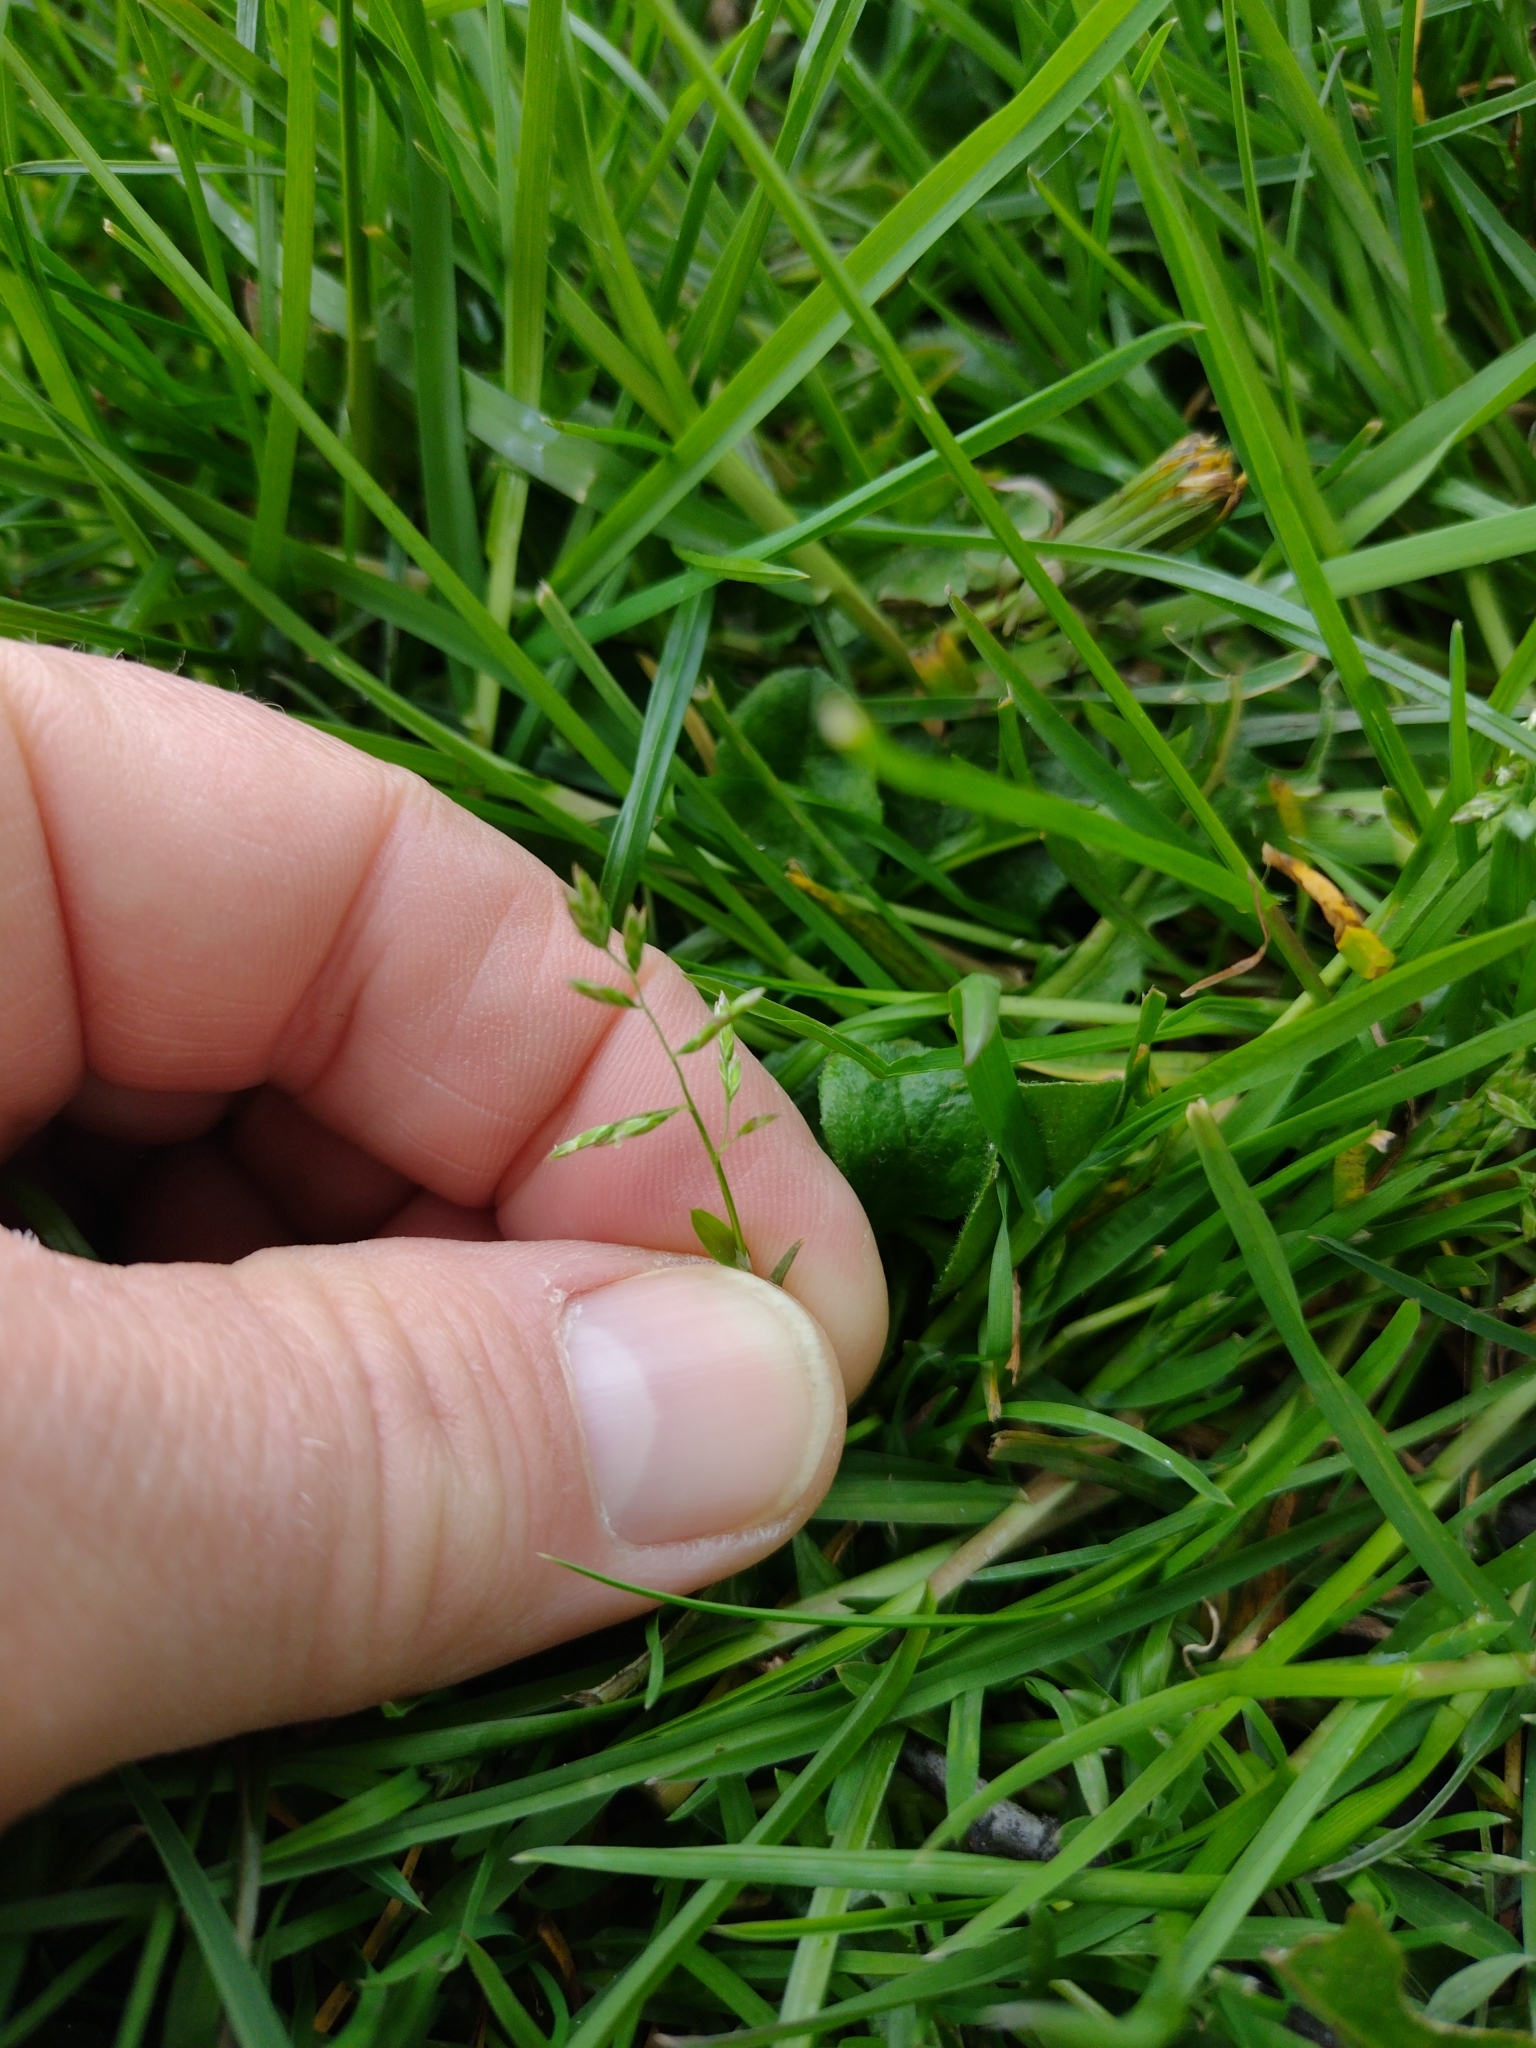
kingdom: Plantae
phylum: Tracheophyta
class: Liliopsida
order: Poales
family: Poaceae
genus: Poa
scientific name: Poa annua
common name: Annual bluegrass
